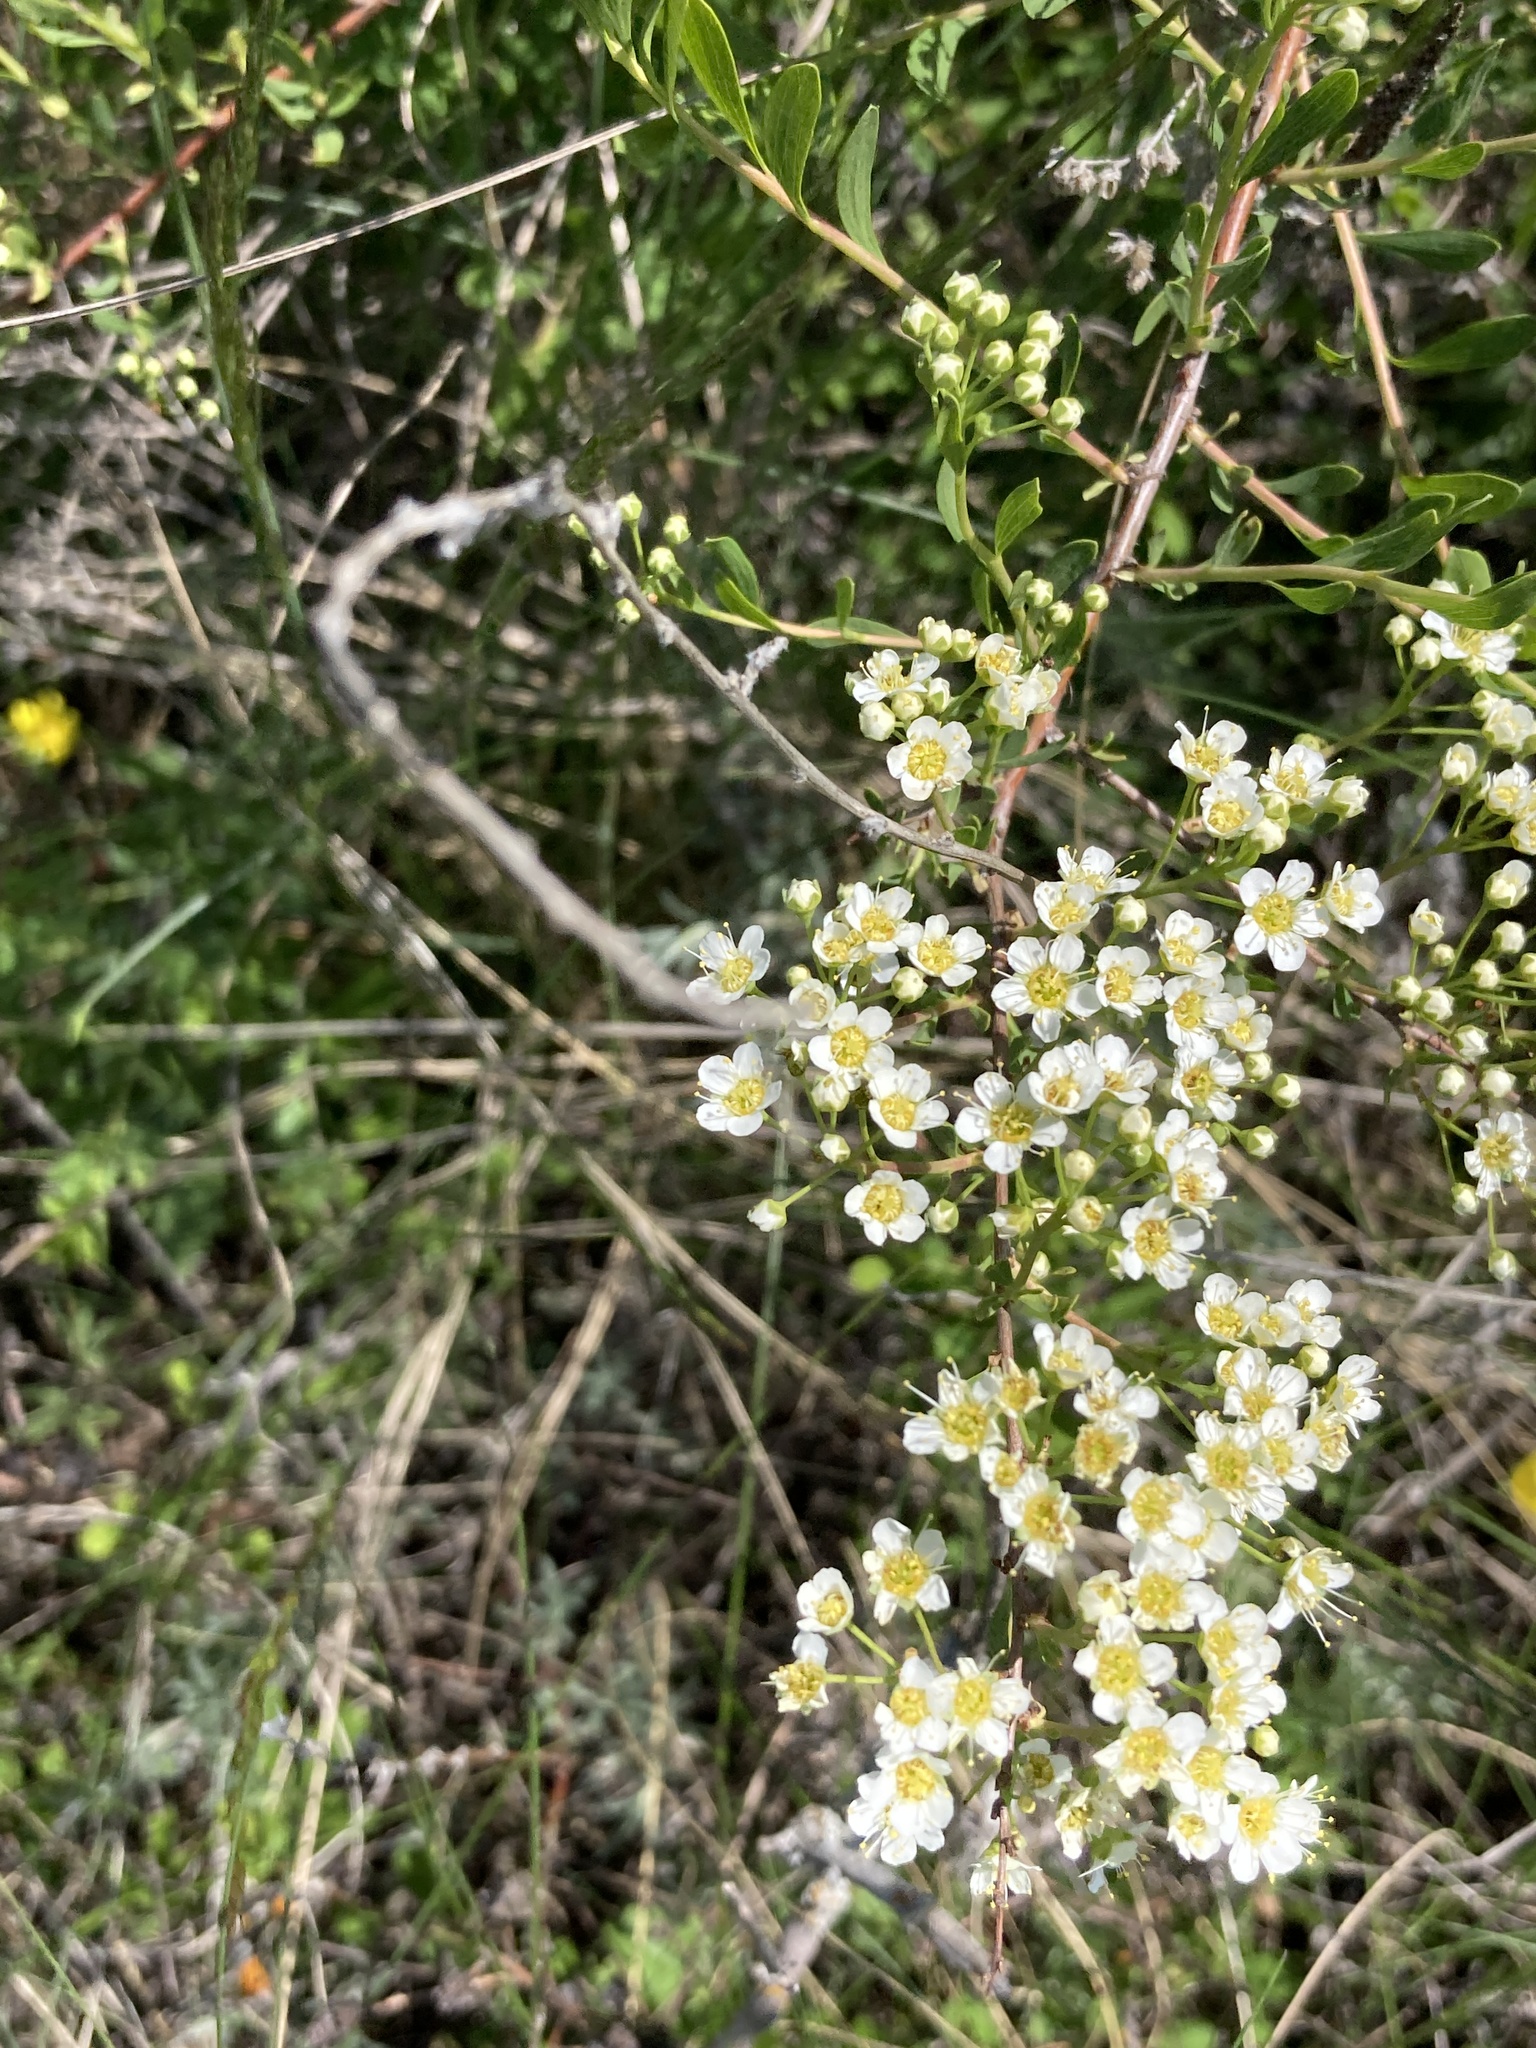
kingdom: Plantae
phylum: Tracheophyta
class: Magnoliopsida
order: Rosales
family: Rosaceae
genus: Spiraea
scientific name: Spiraea crenata
